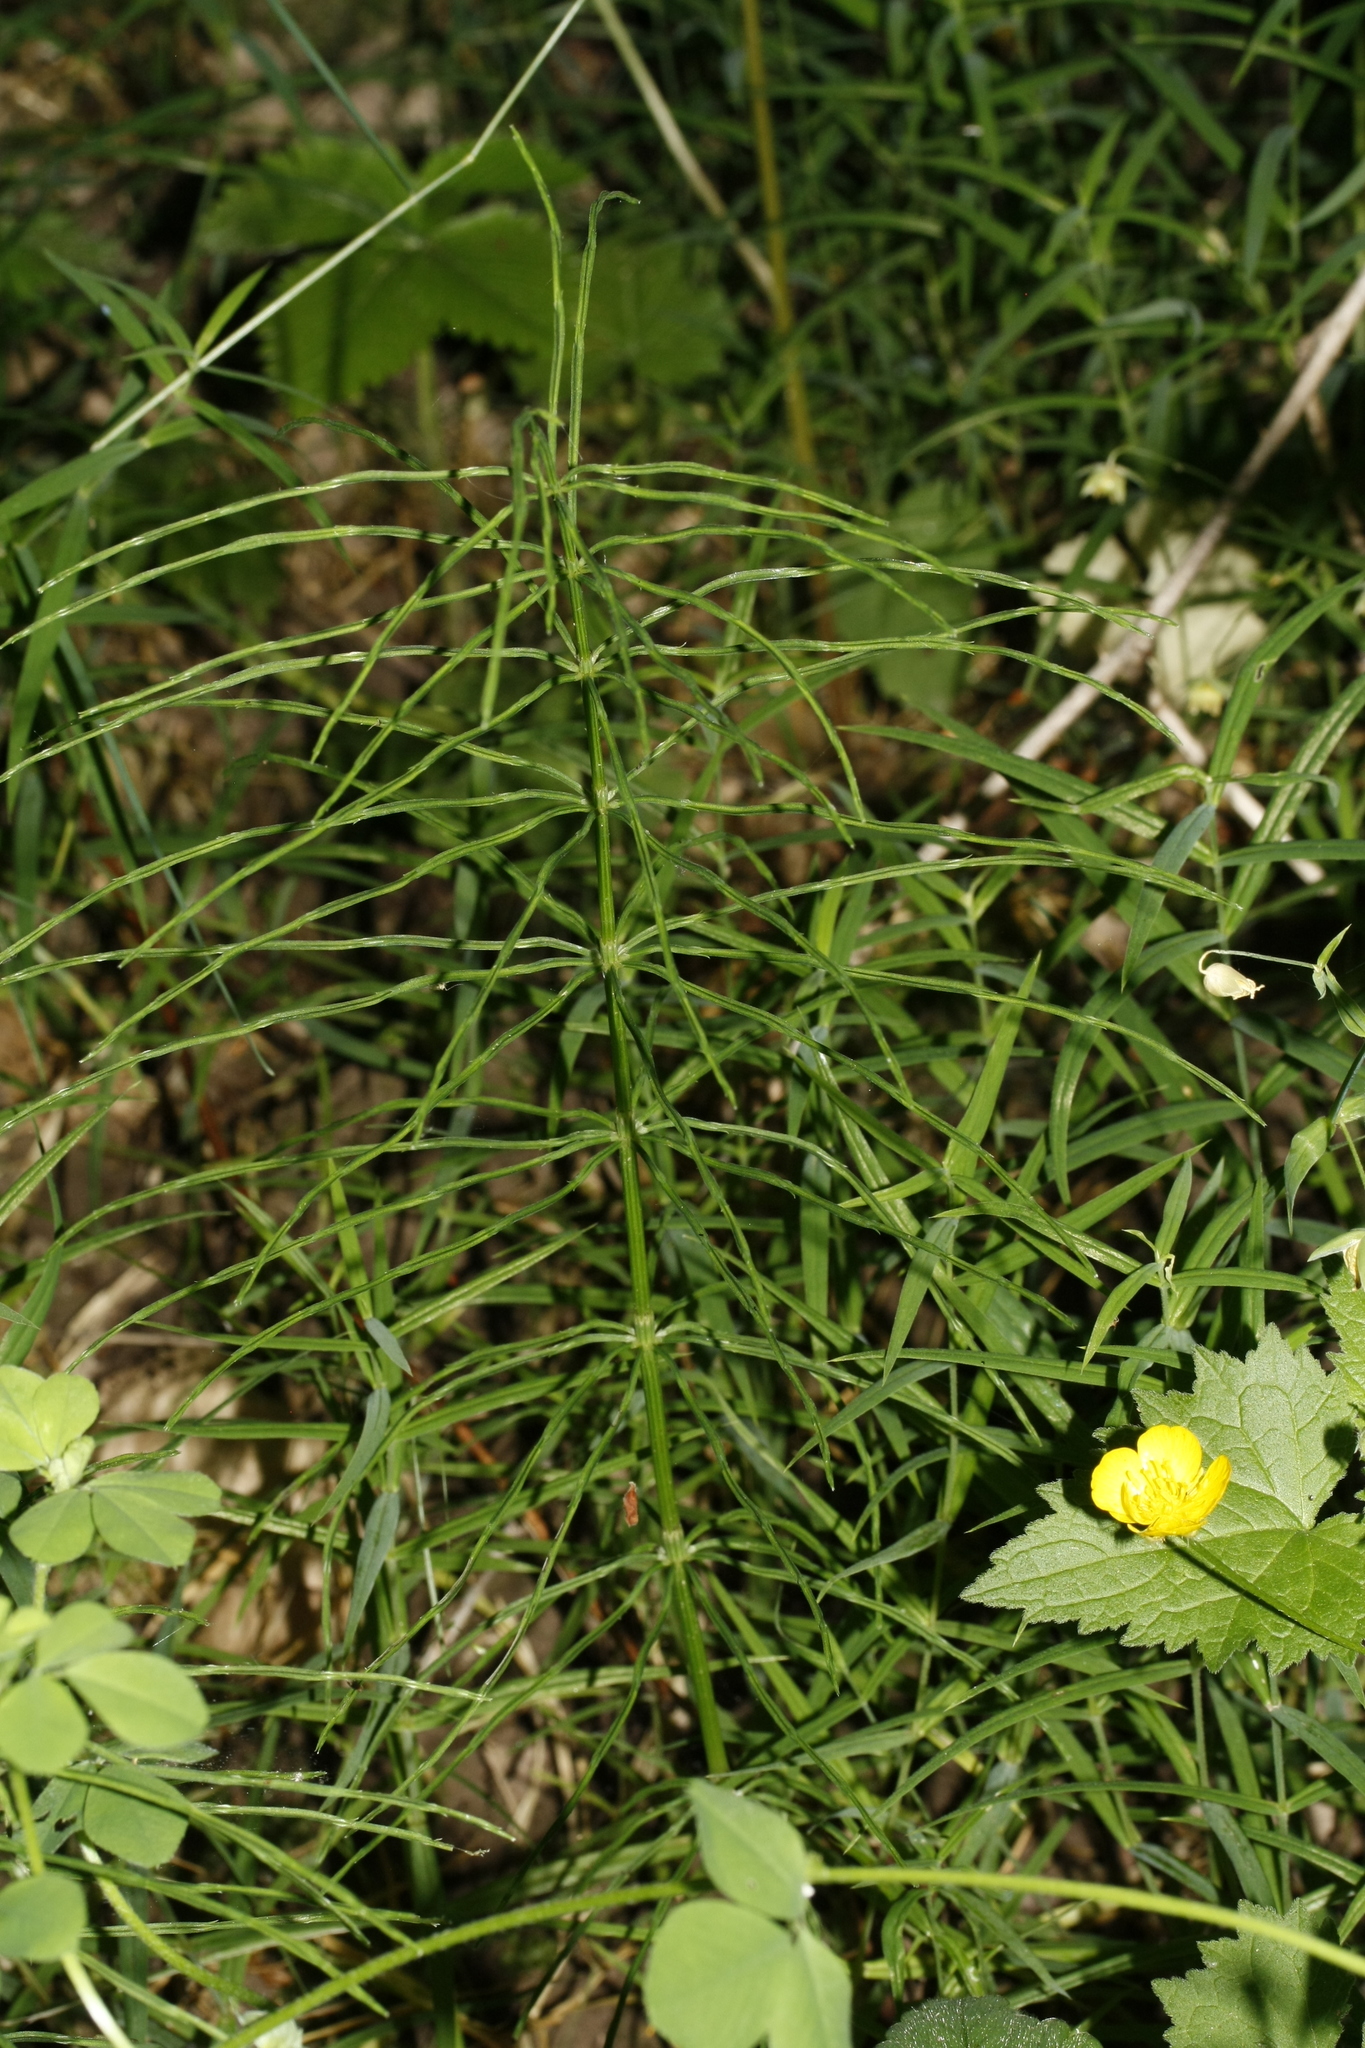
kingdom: Plantae
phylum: Tracheophyta
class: Polypodiopsida
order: Equisetales
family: Equisetaceae
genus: Equisetum
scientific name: Equisetum arvense
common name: Field horsetail
